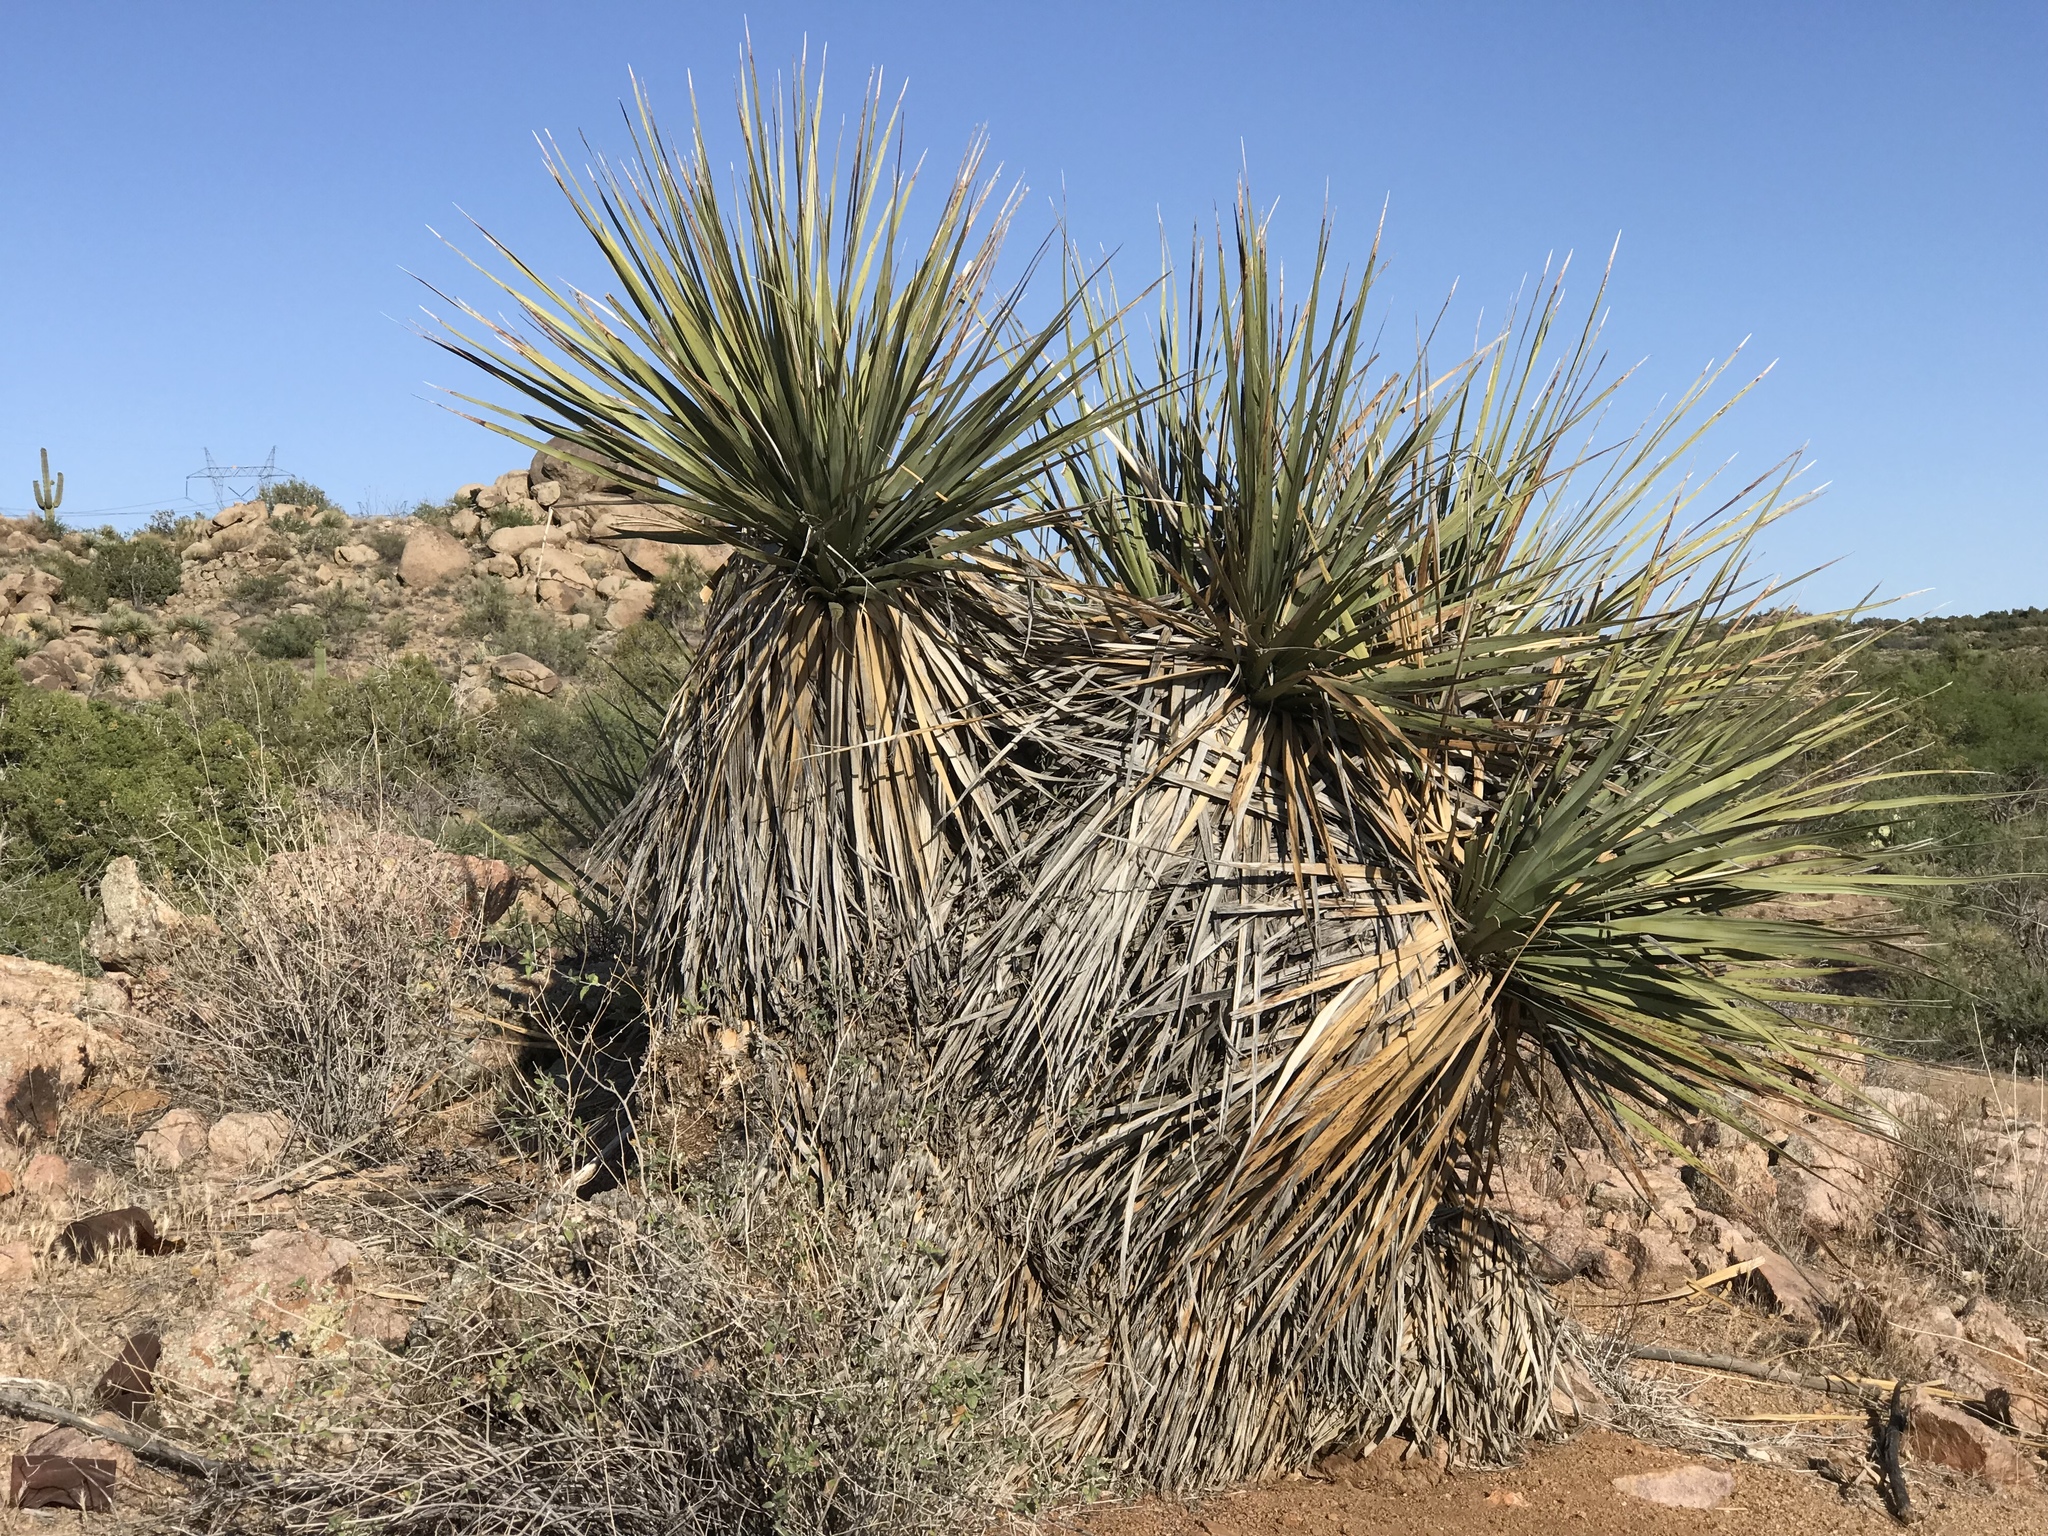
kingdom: Plantae
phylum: Tracheophyta
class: Liliopsida
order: Asparagales
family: Asparagaceae
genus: Nolina
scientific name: Nolina bigelovii
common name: Bigelow bear-grass
